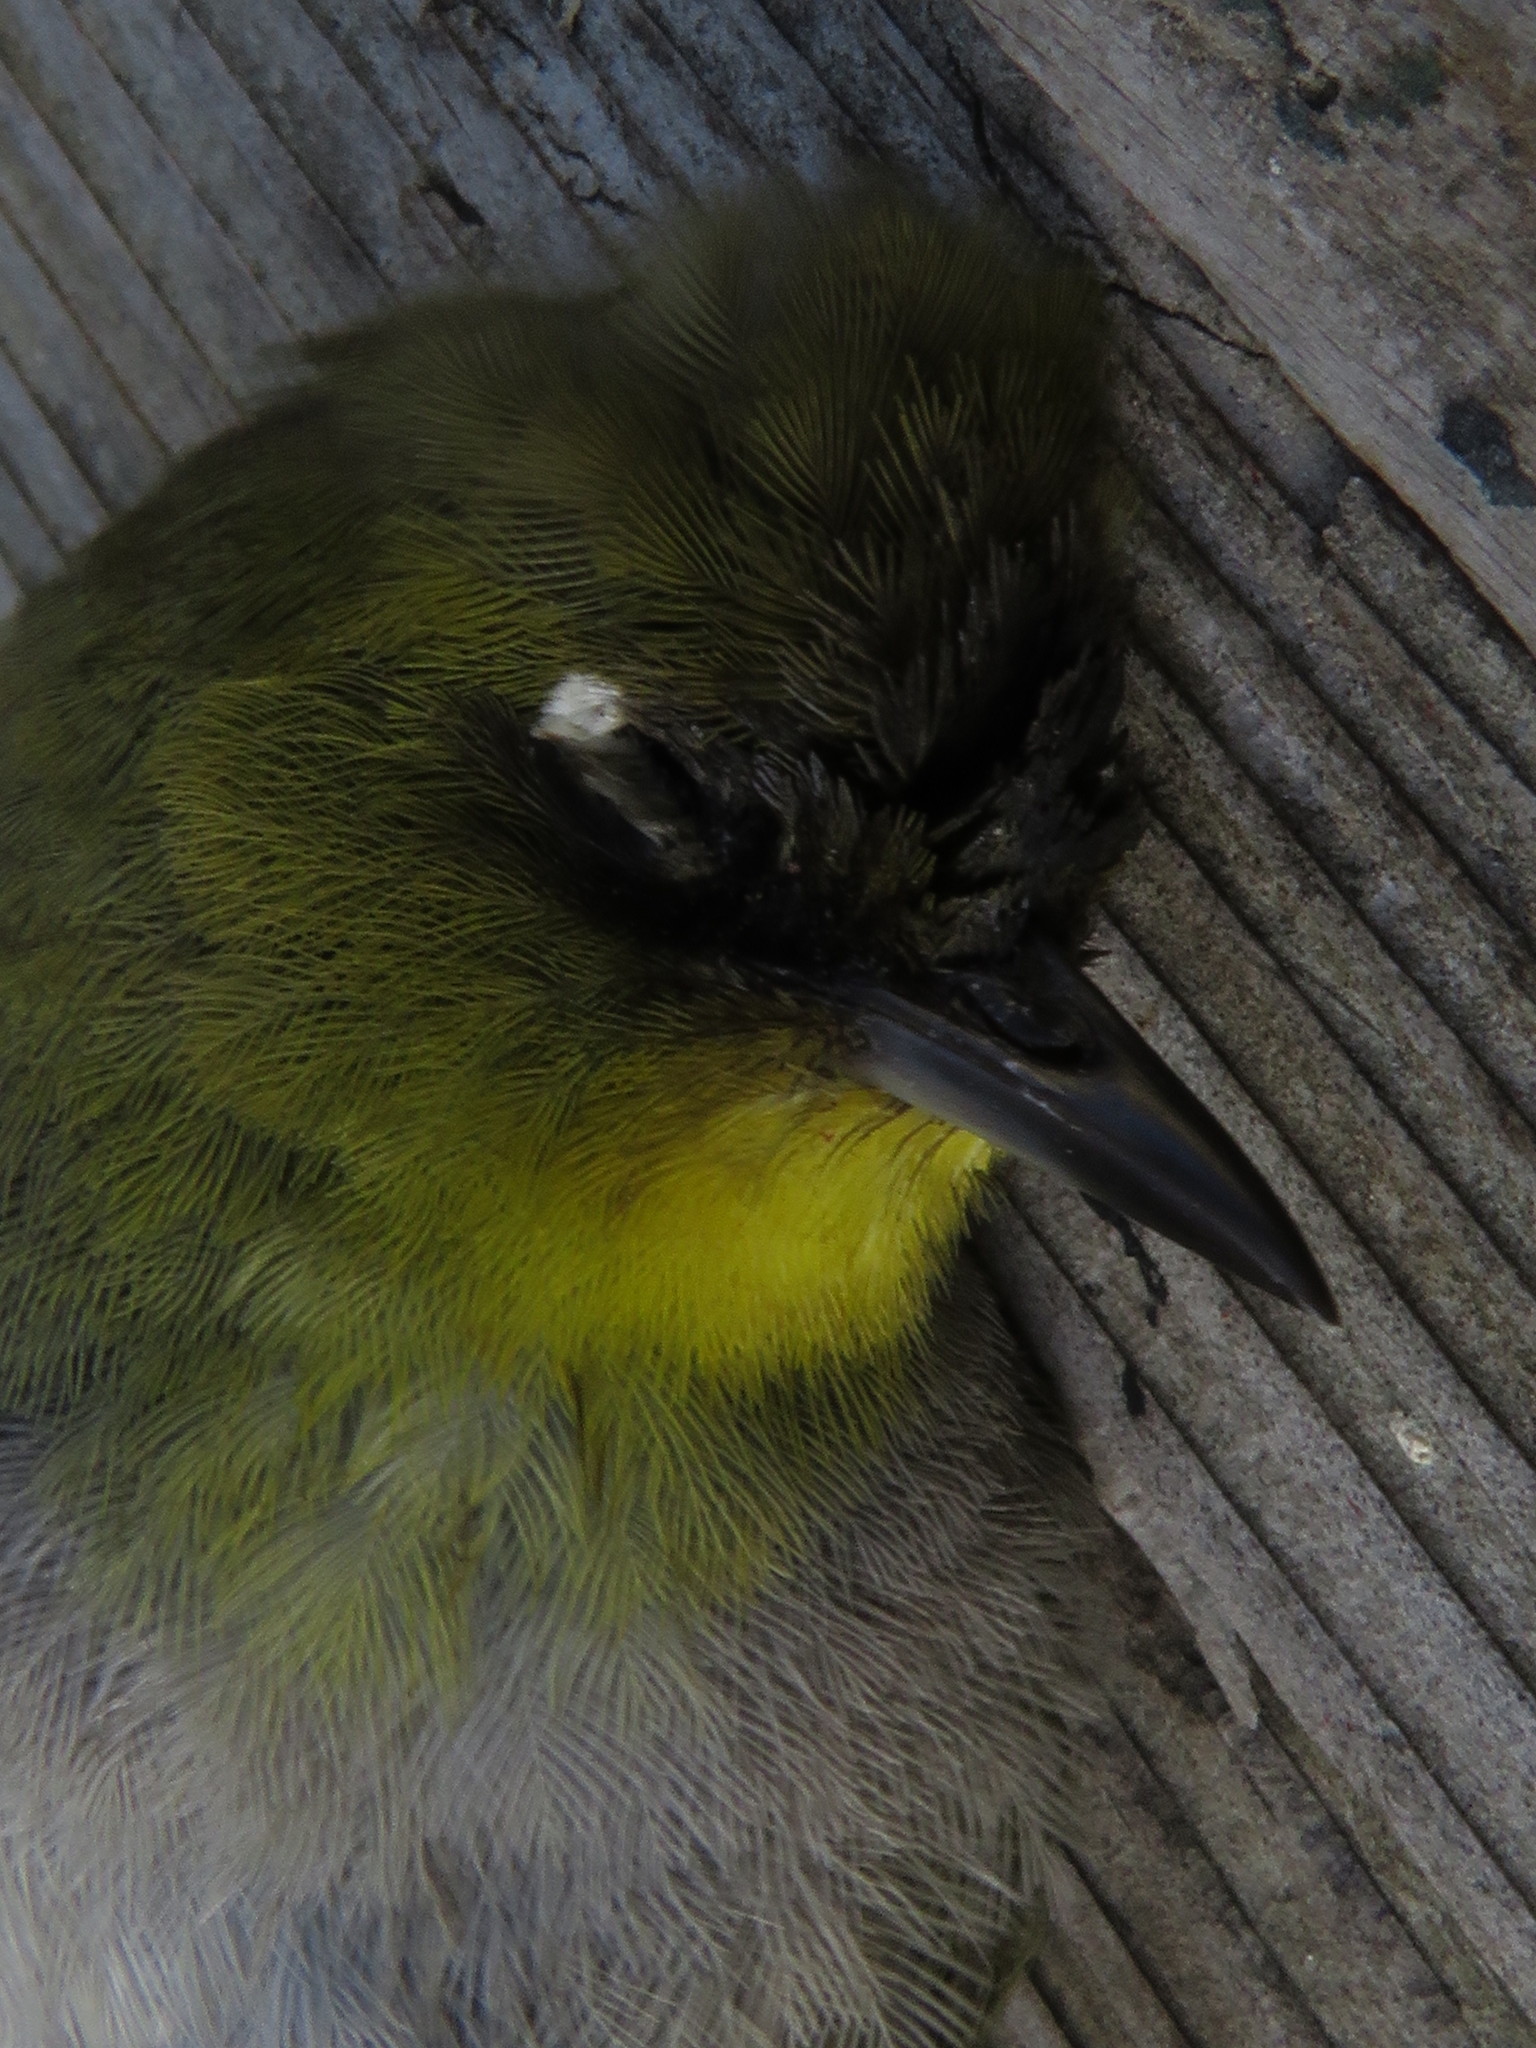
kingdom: Animalia
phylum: Chordata
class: Aves
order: Passeriformes
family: Zosteropidae
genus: Zosterops
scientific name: Zosterops virens
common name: Cape white-eye
